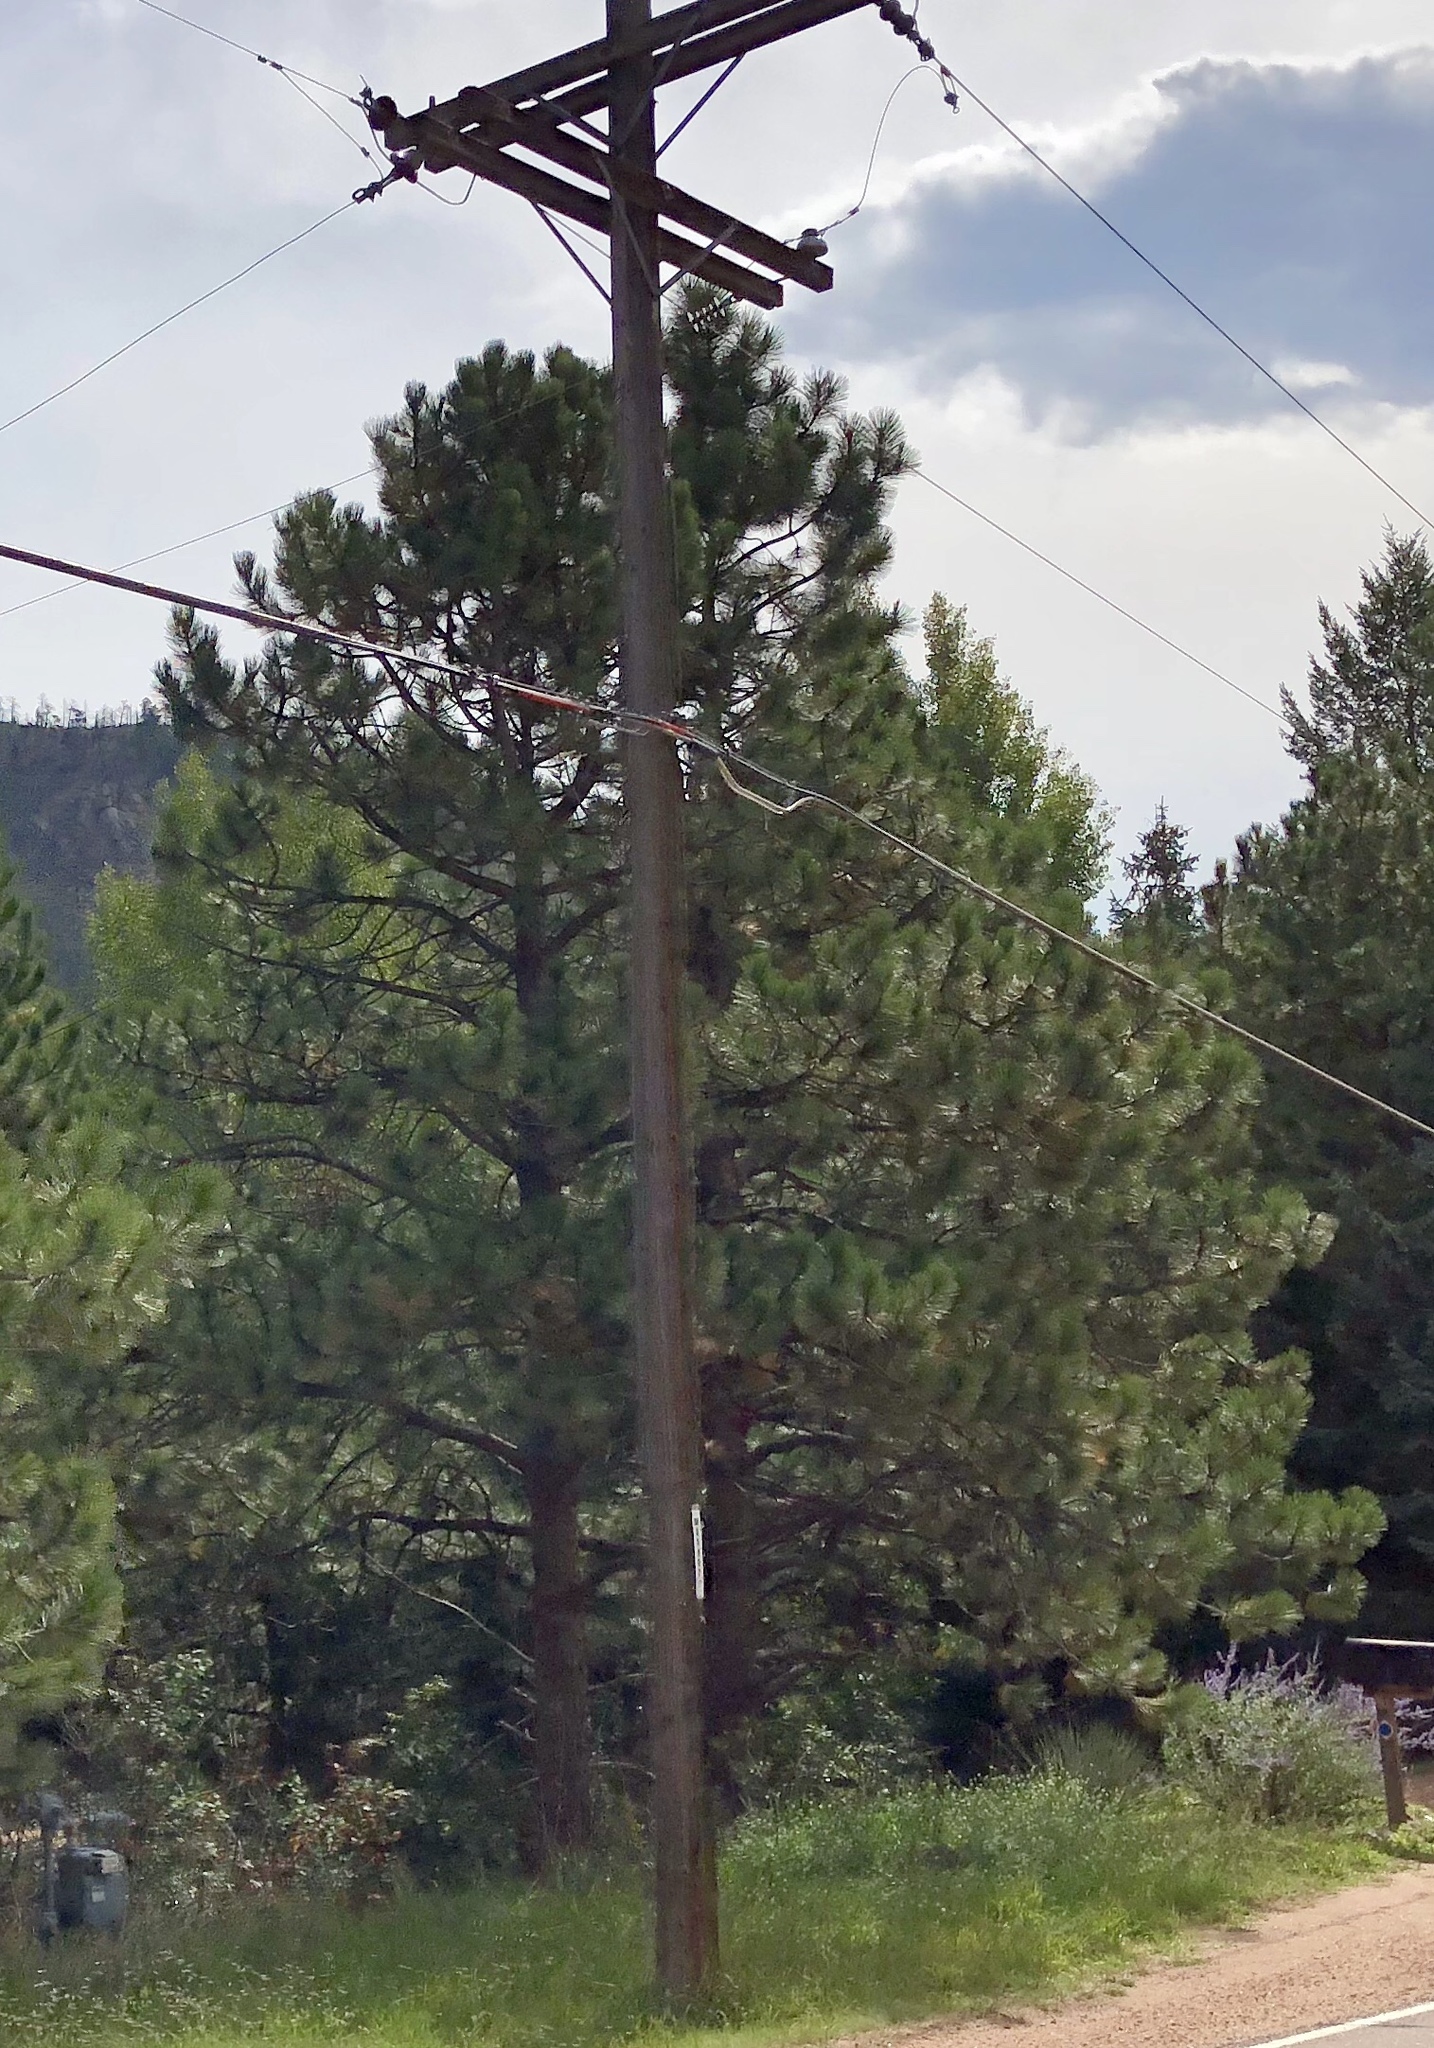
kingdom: Plantae
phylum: Tracheophyta
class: Pinopsida
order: Pinales
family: Pinaceae
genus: Pinus
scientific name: Pinus ponderosa
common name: Western yellow-pine
